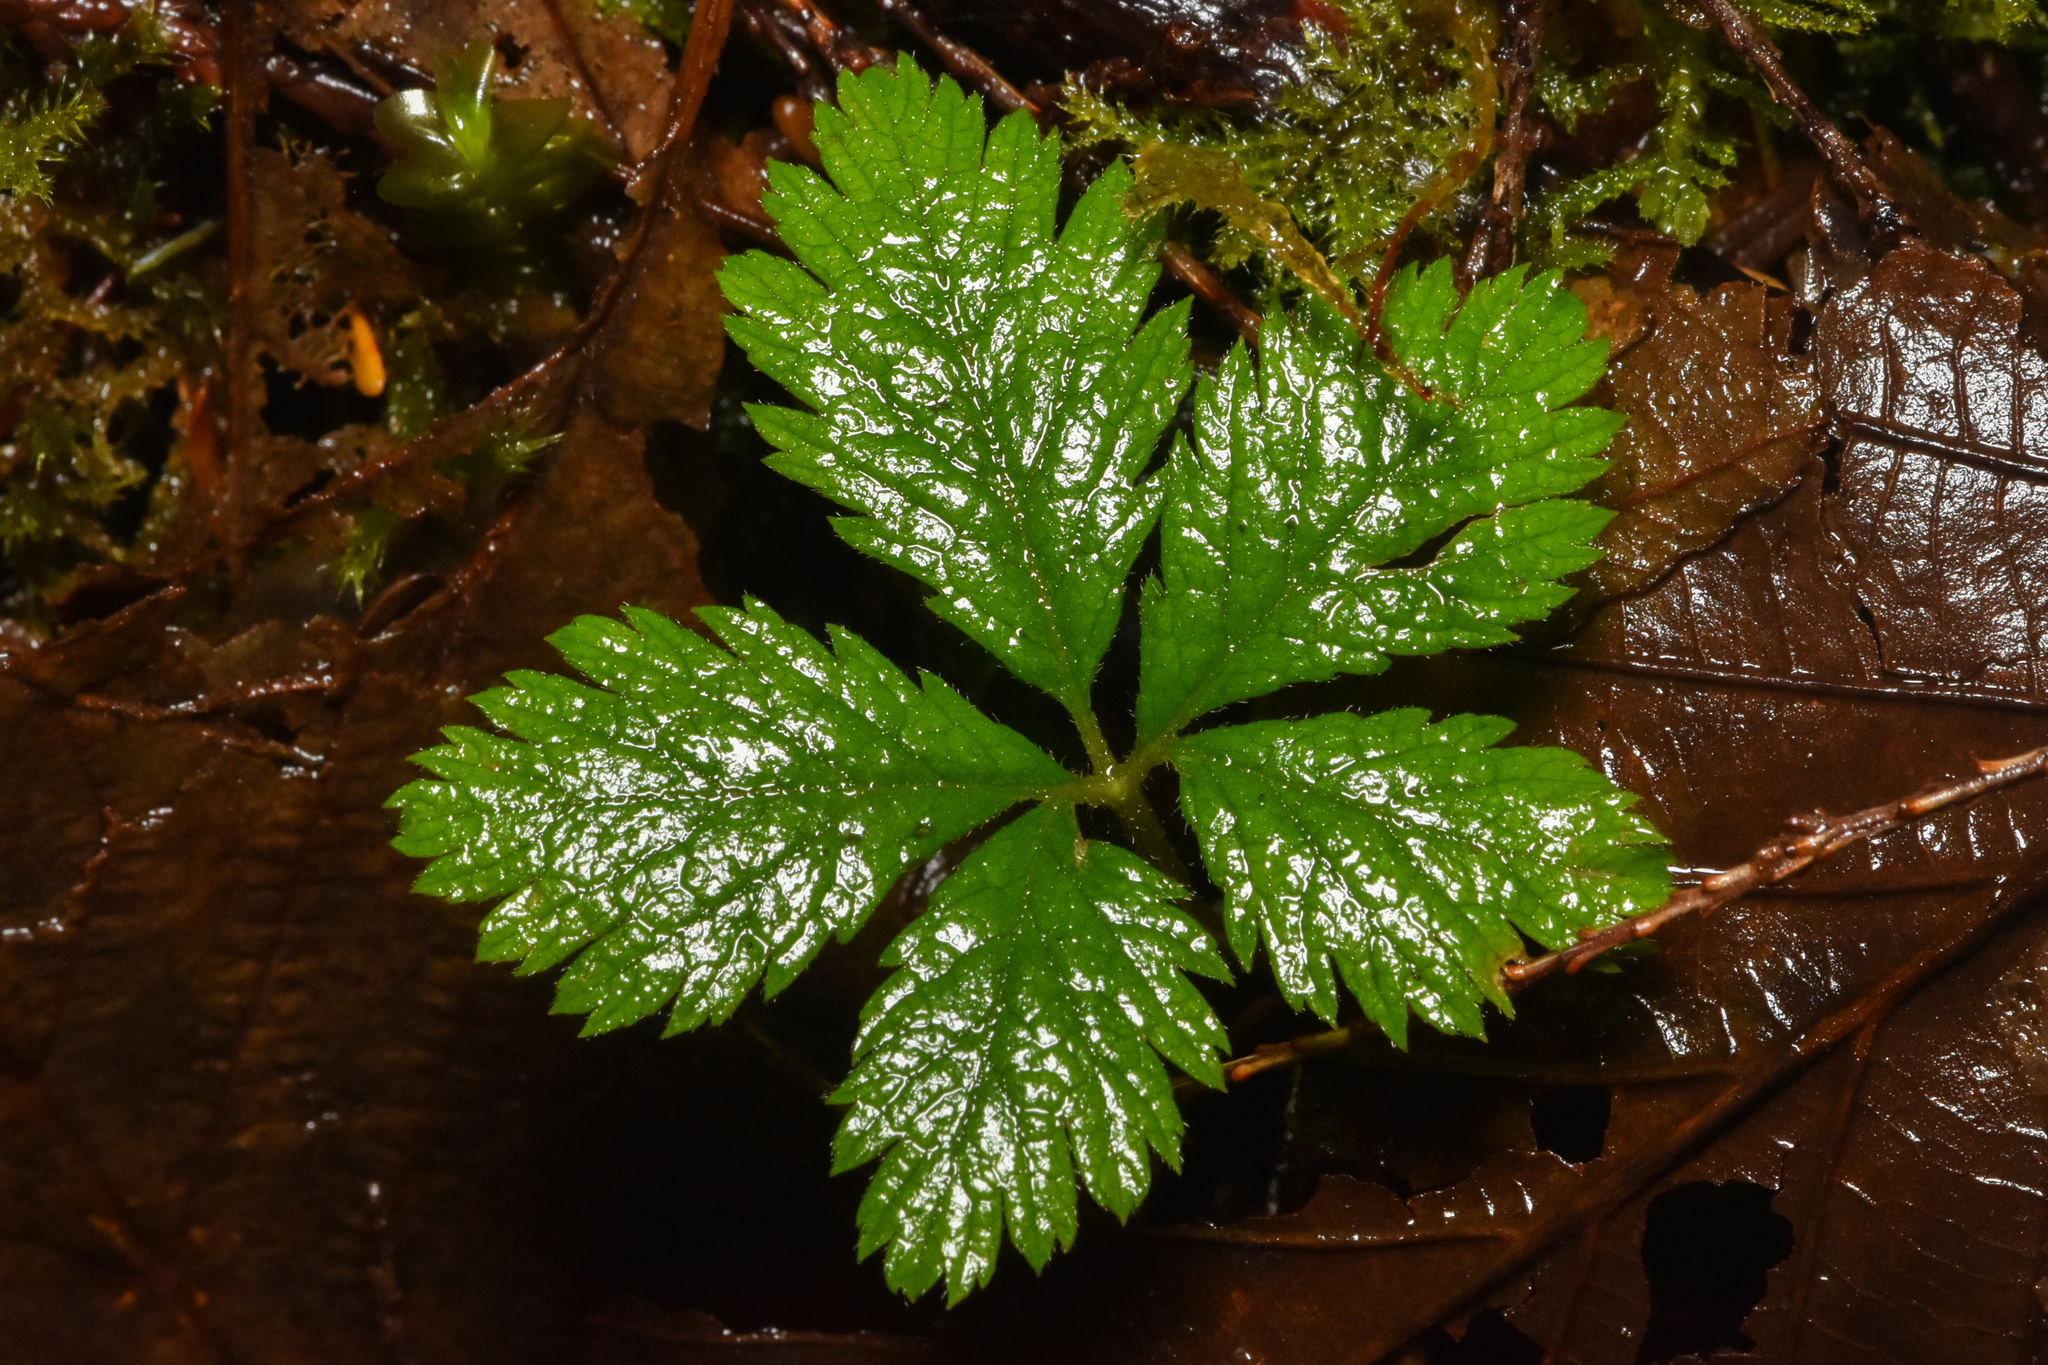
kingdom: Plantae
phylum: Tracheophyta
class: Magnoliopsida
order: Rosales
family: Rosaceae
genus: Rubus
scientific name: Rubus pedatus
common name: Creeping raspberry
